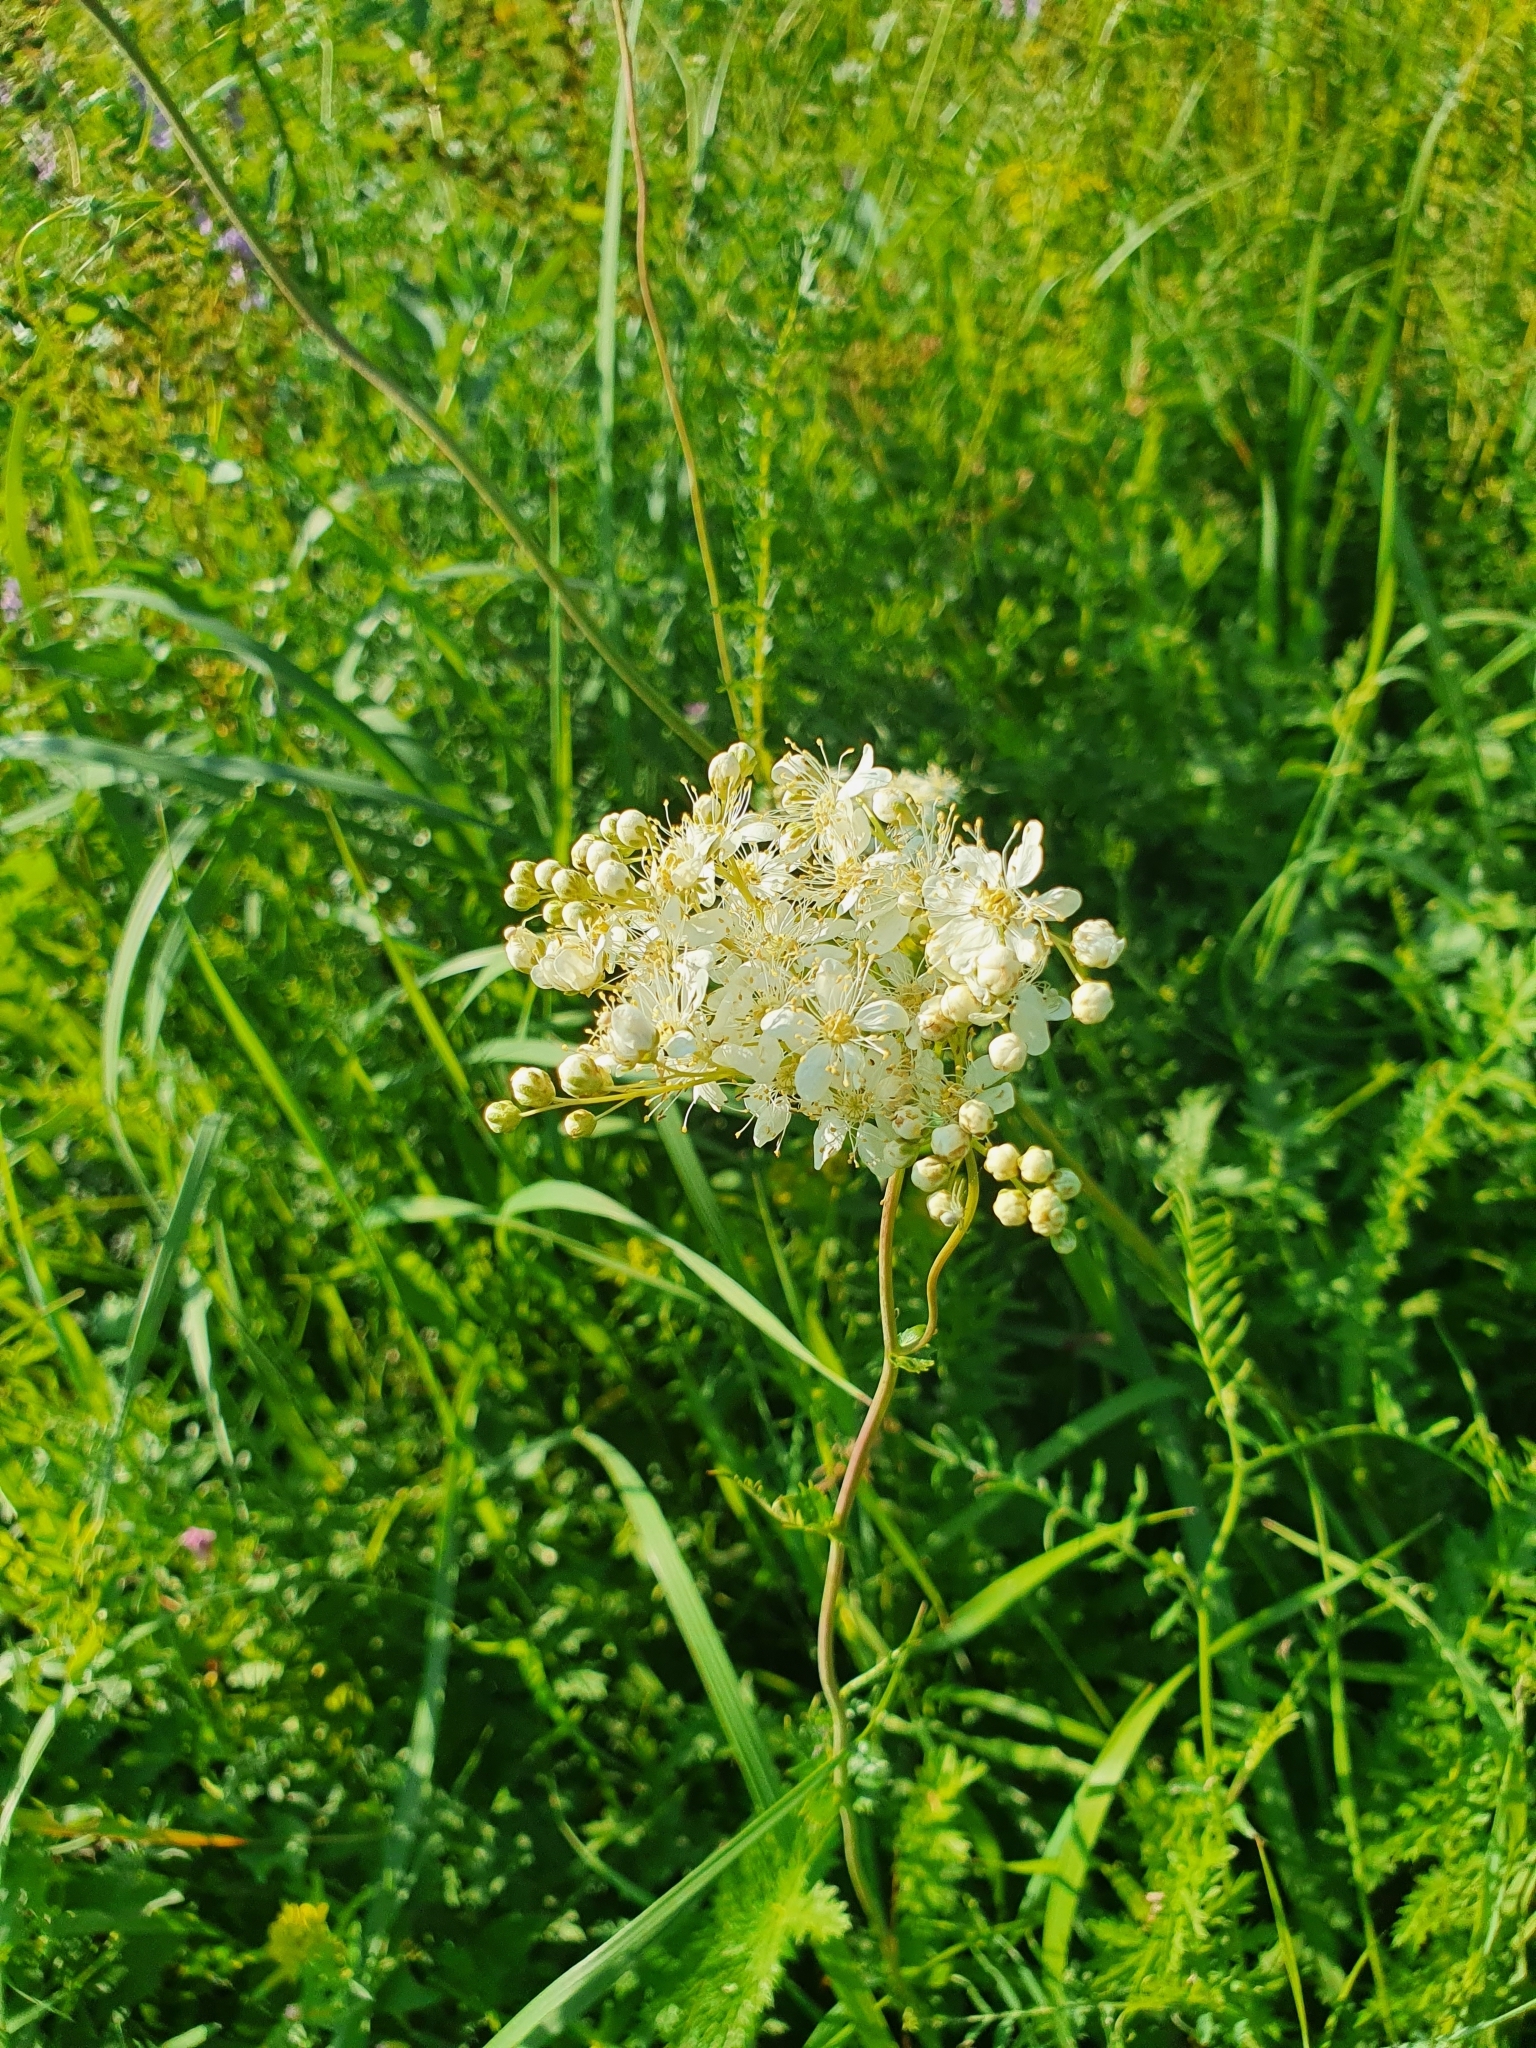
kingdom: Plantae
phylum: Tracheophyta
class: Magnoliopsida
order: Rosales
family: Rosaceae
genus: Filipendula
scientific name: Filipendula vulgaris
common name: Dropwort
